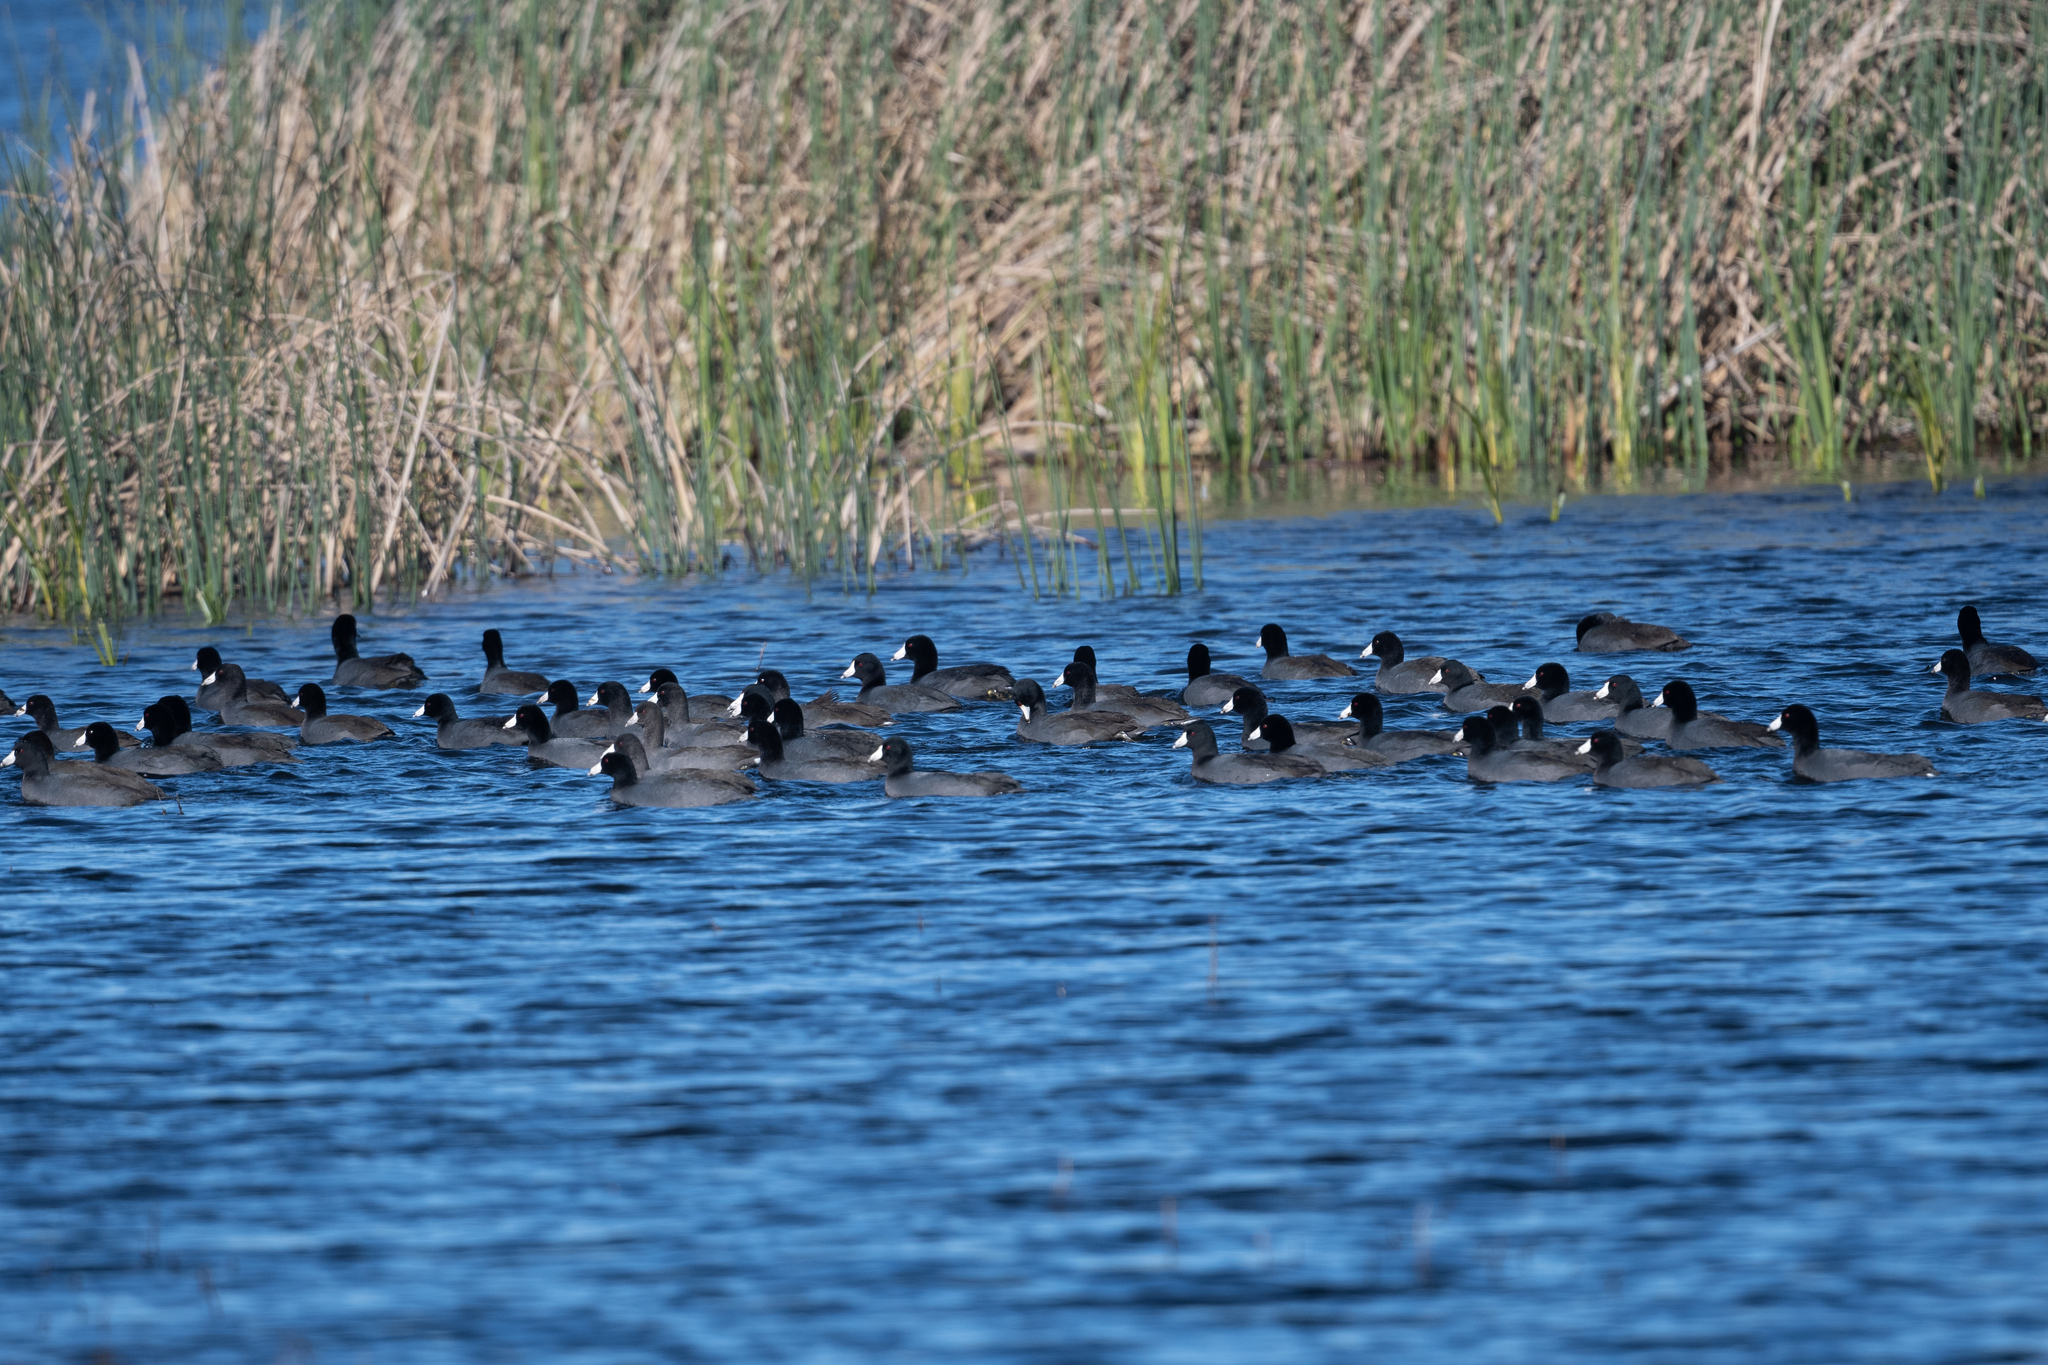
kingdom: Animalia
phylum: Chordata
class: Aves
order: Gruiformes
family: Rallidae
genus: Fulica
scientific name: Fulica americana
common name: American coot
